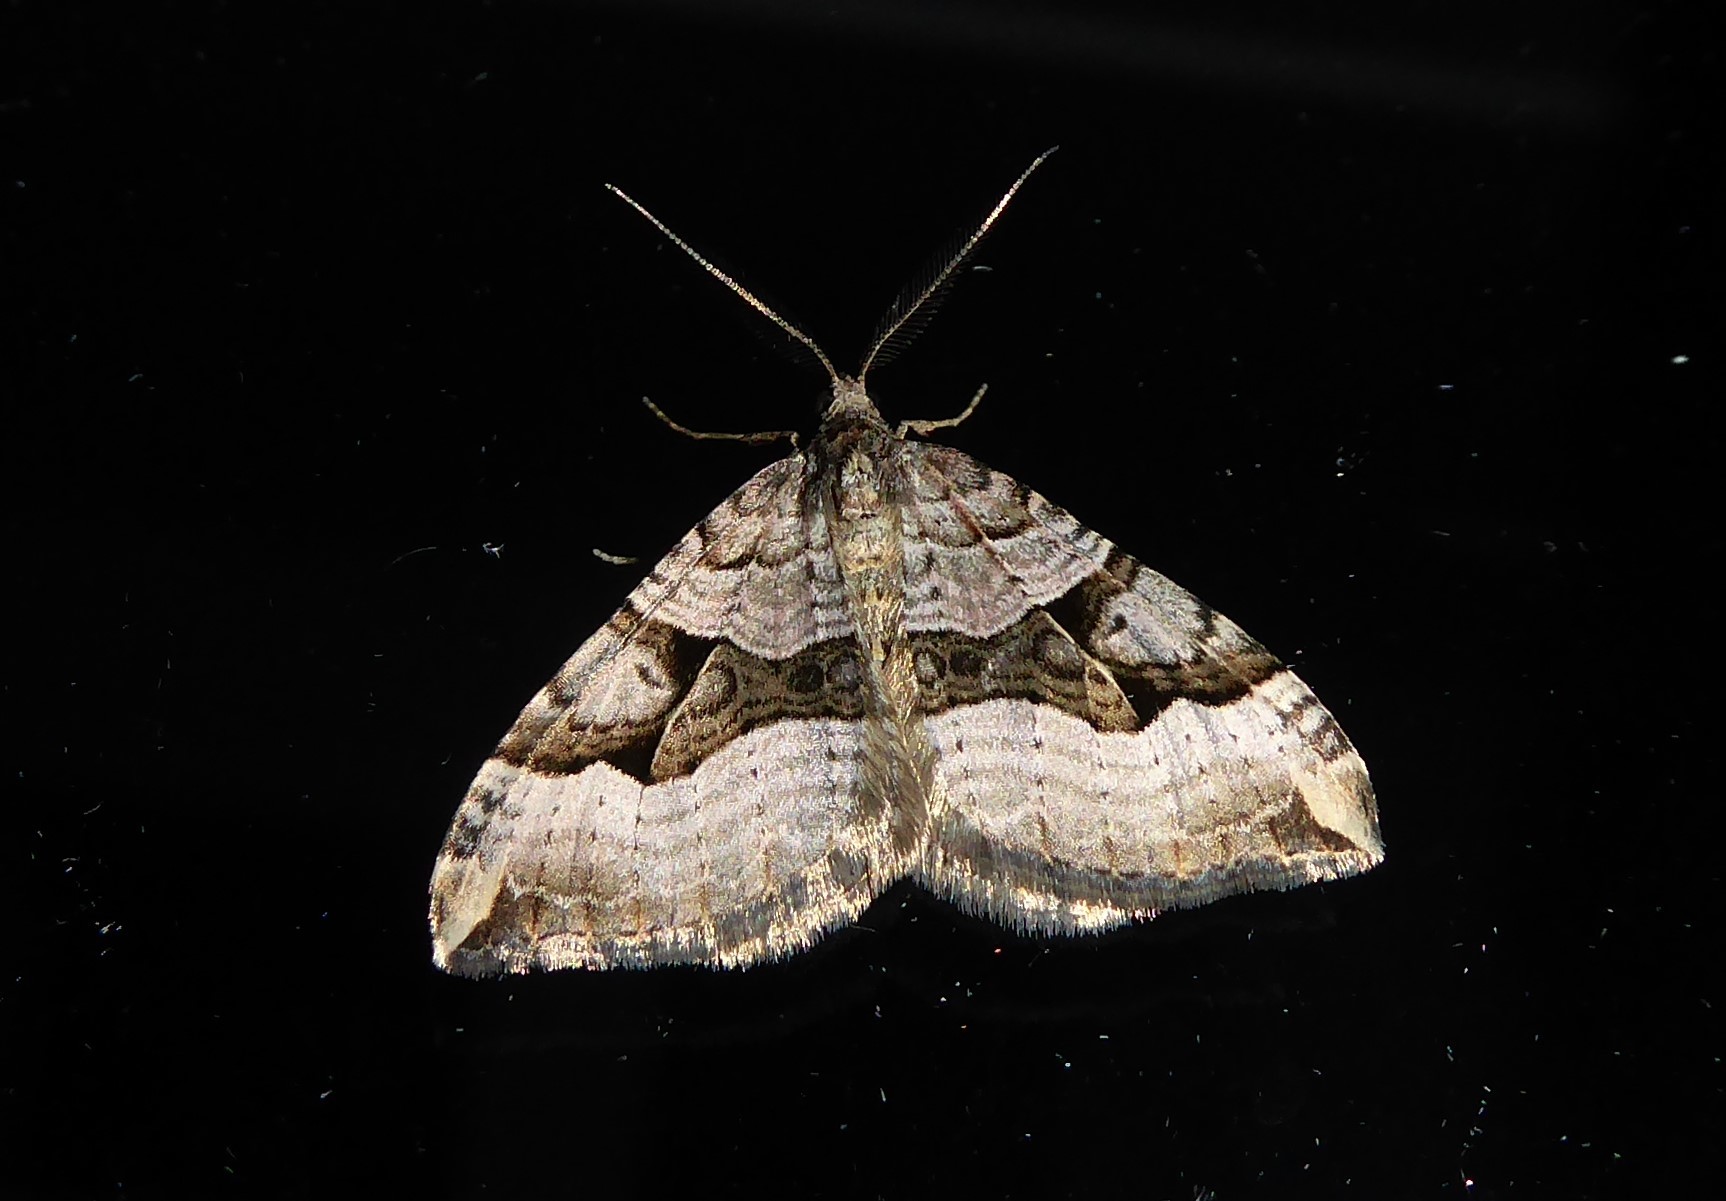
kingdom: Animalia
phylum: Arthropoda
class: Insecta
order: Lepidoptera
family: Geometridae
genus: Xanthorhoe
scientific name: Xanthorhoe semifissata
